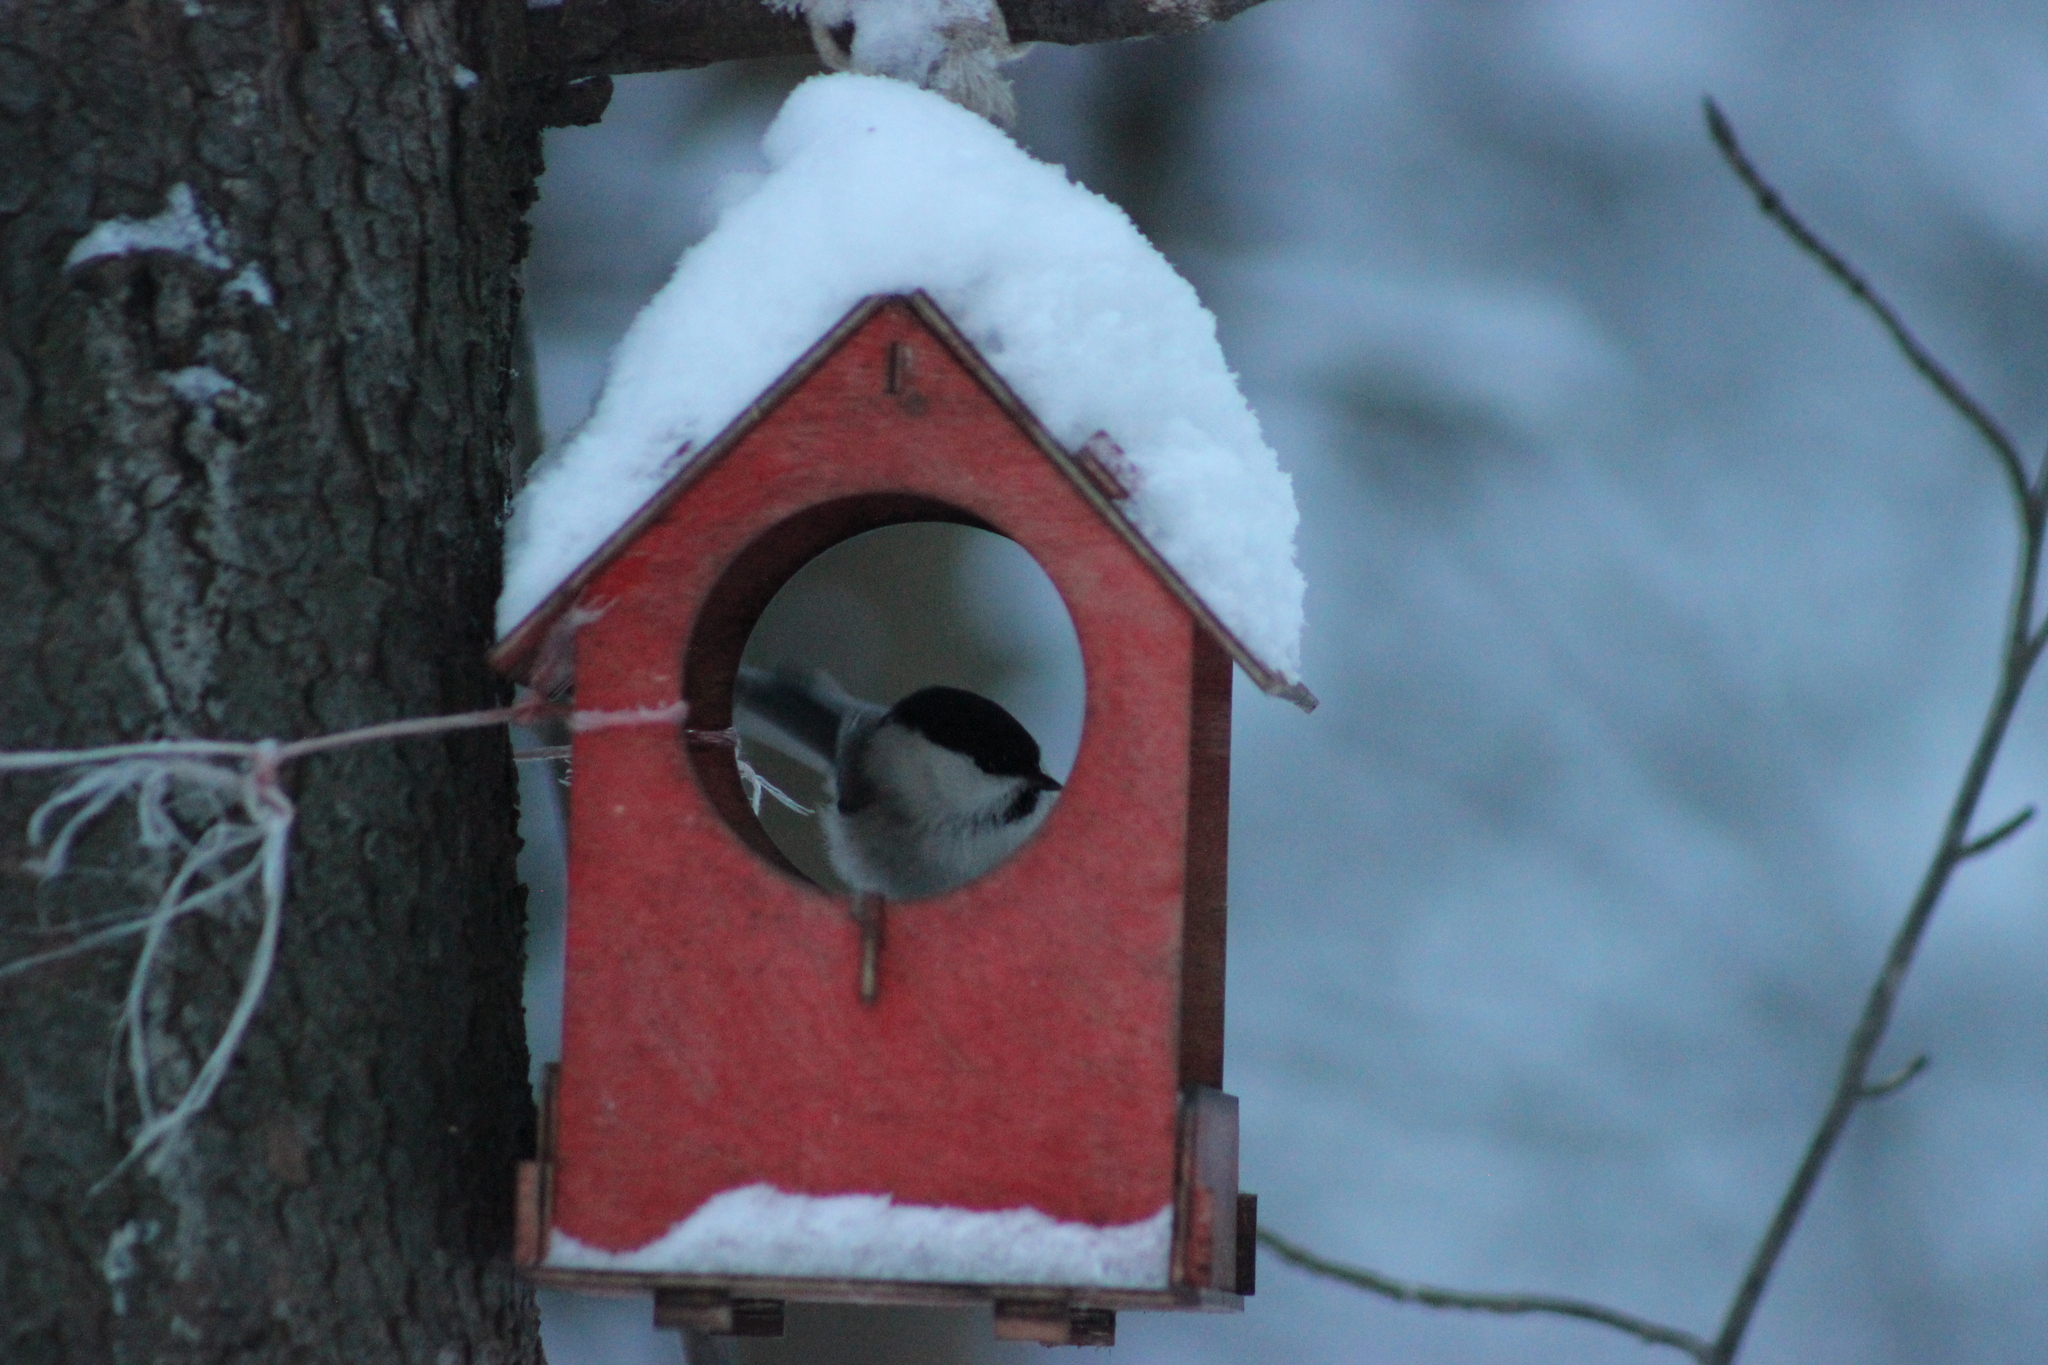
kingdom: Animalia
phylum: Chordata
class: Aves
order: Passeriformes
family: Paridae
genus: Poecile
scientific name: Poecile montanus
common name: Willow tit
